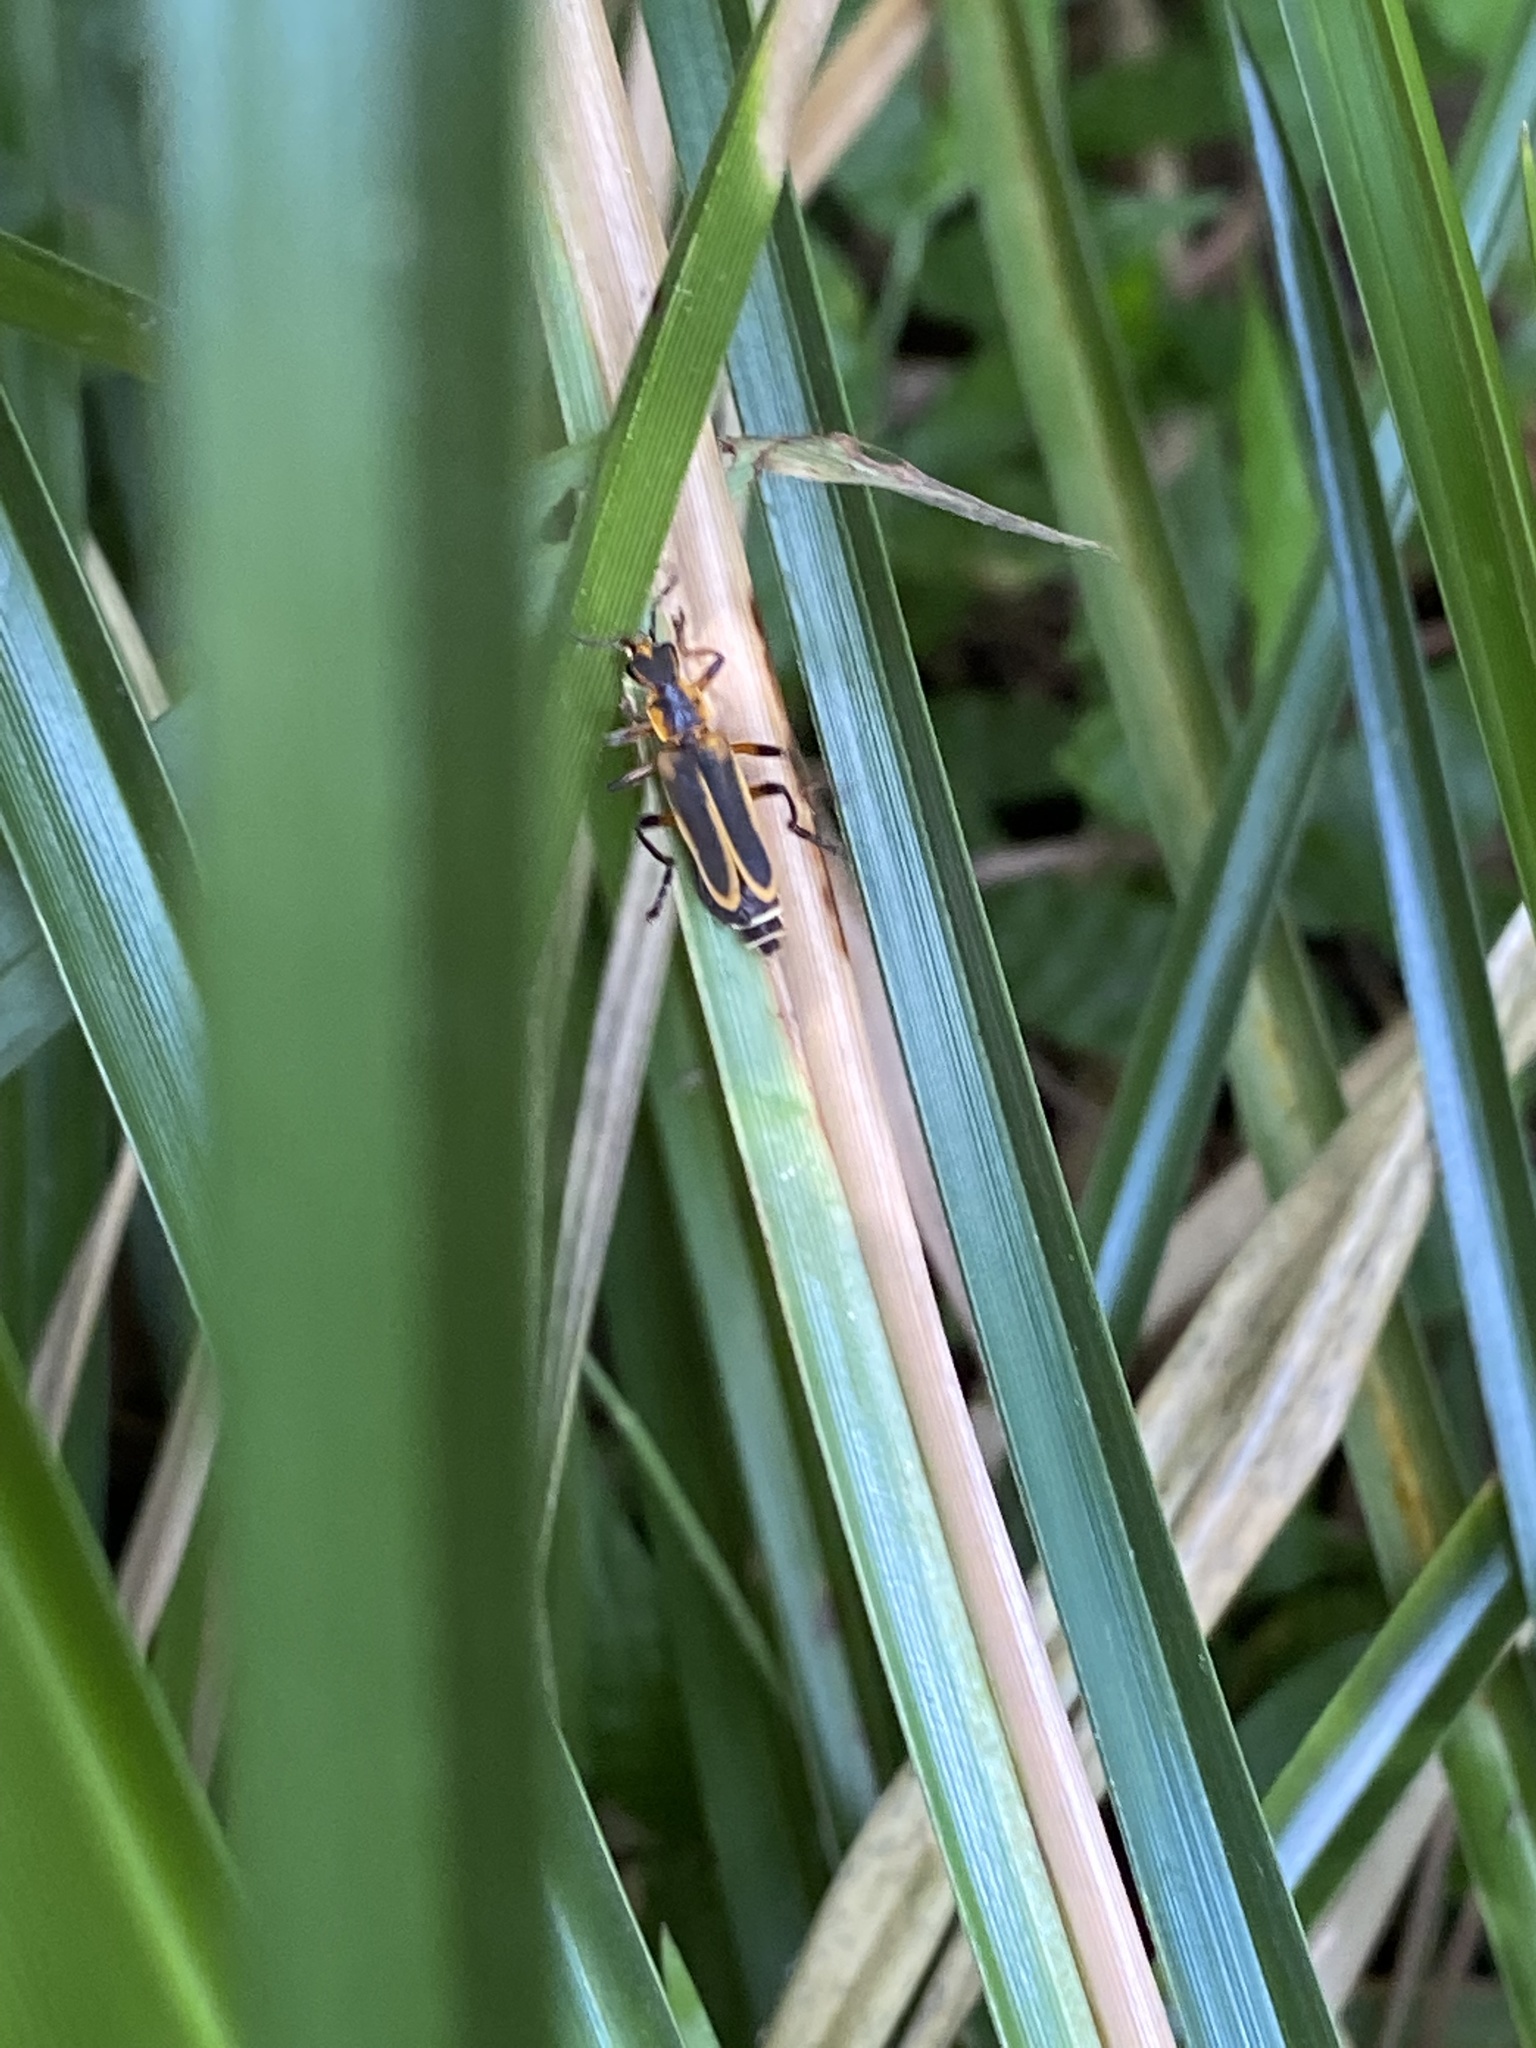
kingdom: Animalia
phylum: Arthropoda
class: Insecta
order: Coleoptera
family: Cantharidae
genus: Chauliognathus
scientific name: Chauliognathus marginatus
